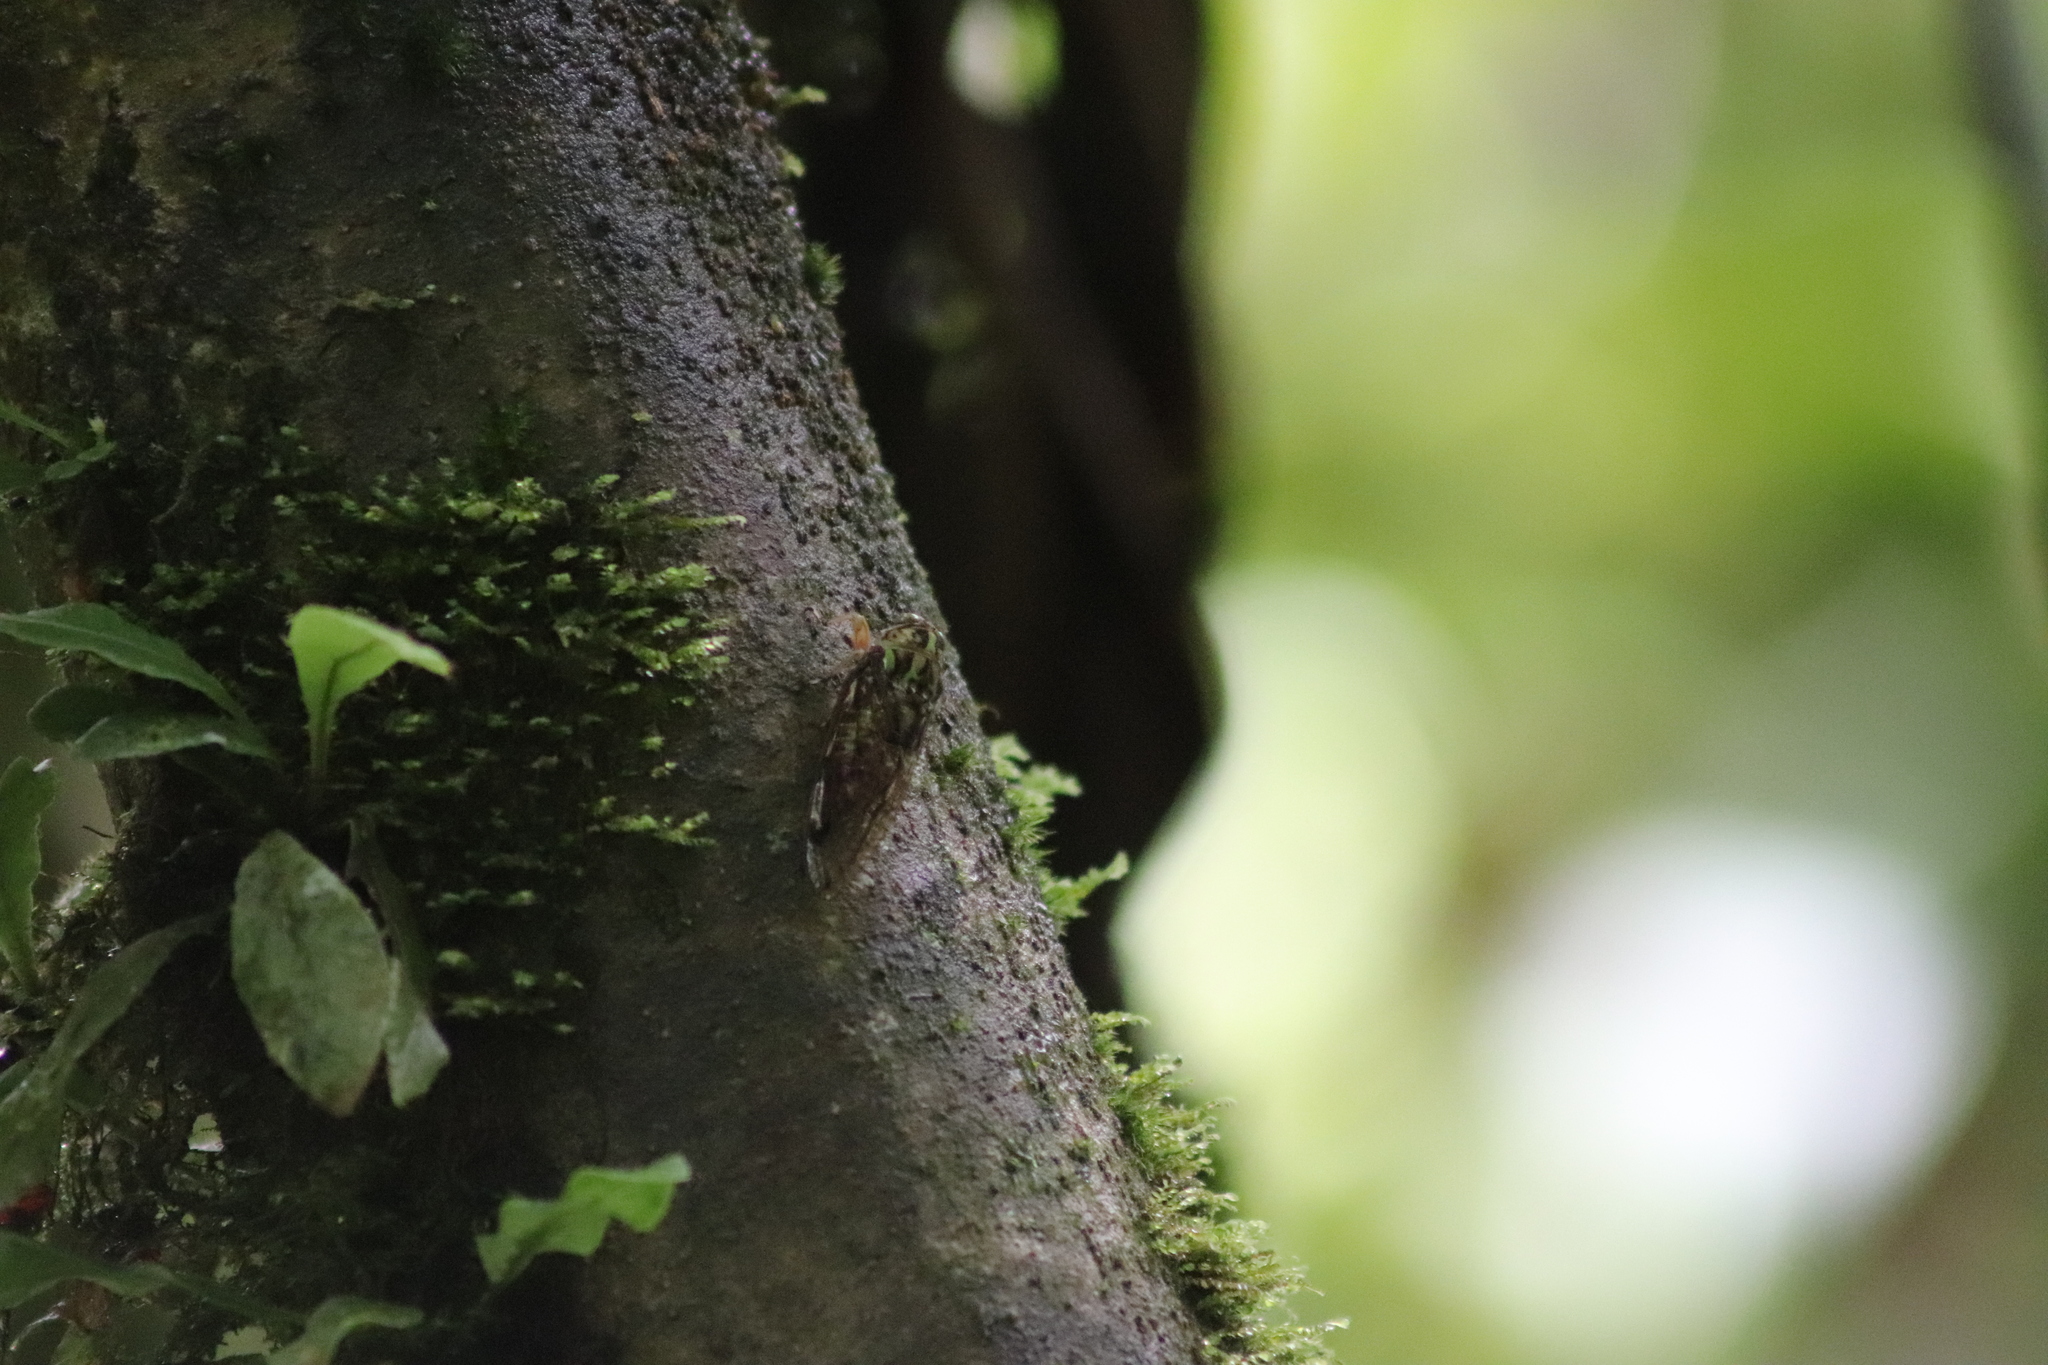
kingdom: Animalia
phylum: Arthropoda
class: Insecta
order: Hemiptera
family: Cicadidae
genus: Carineta
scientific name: Carineta trivittata
